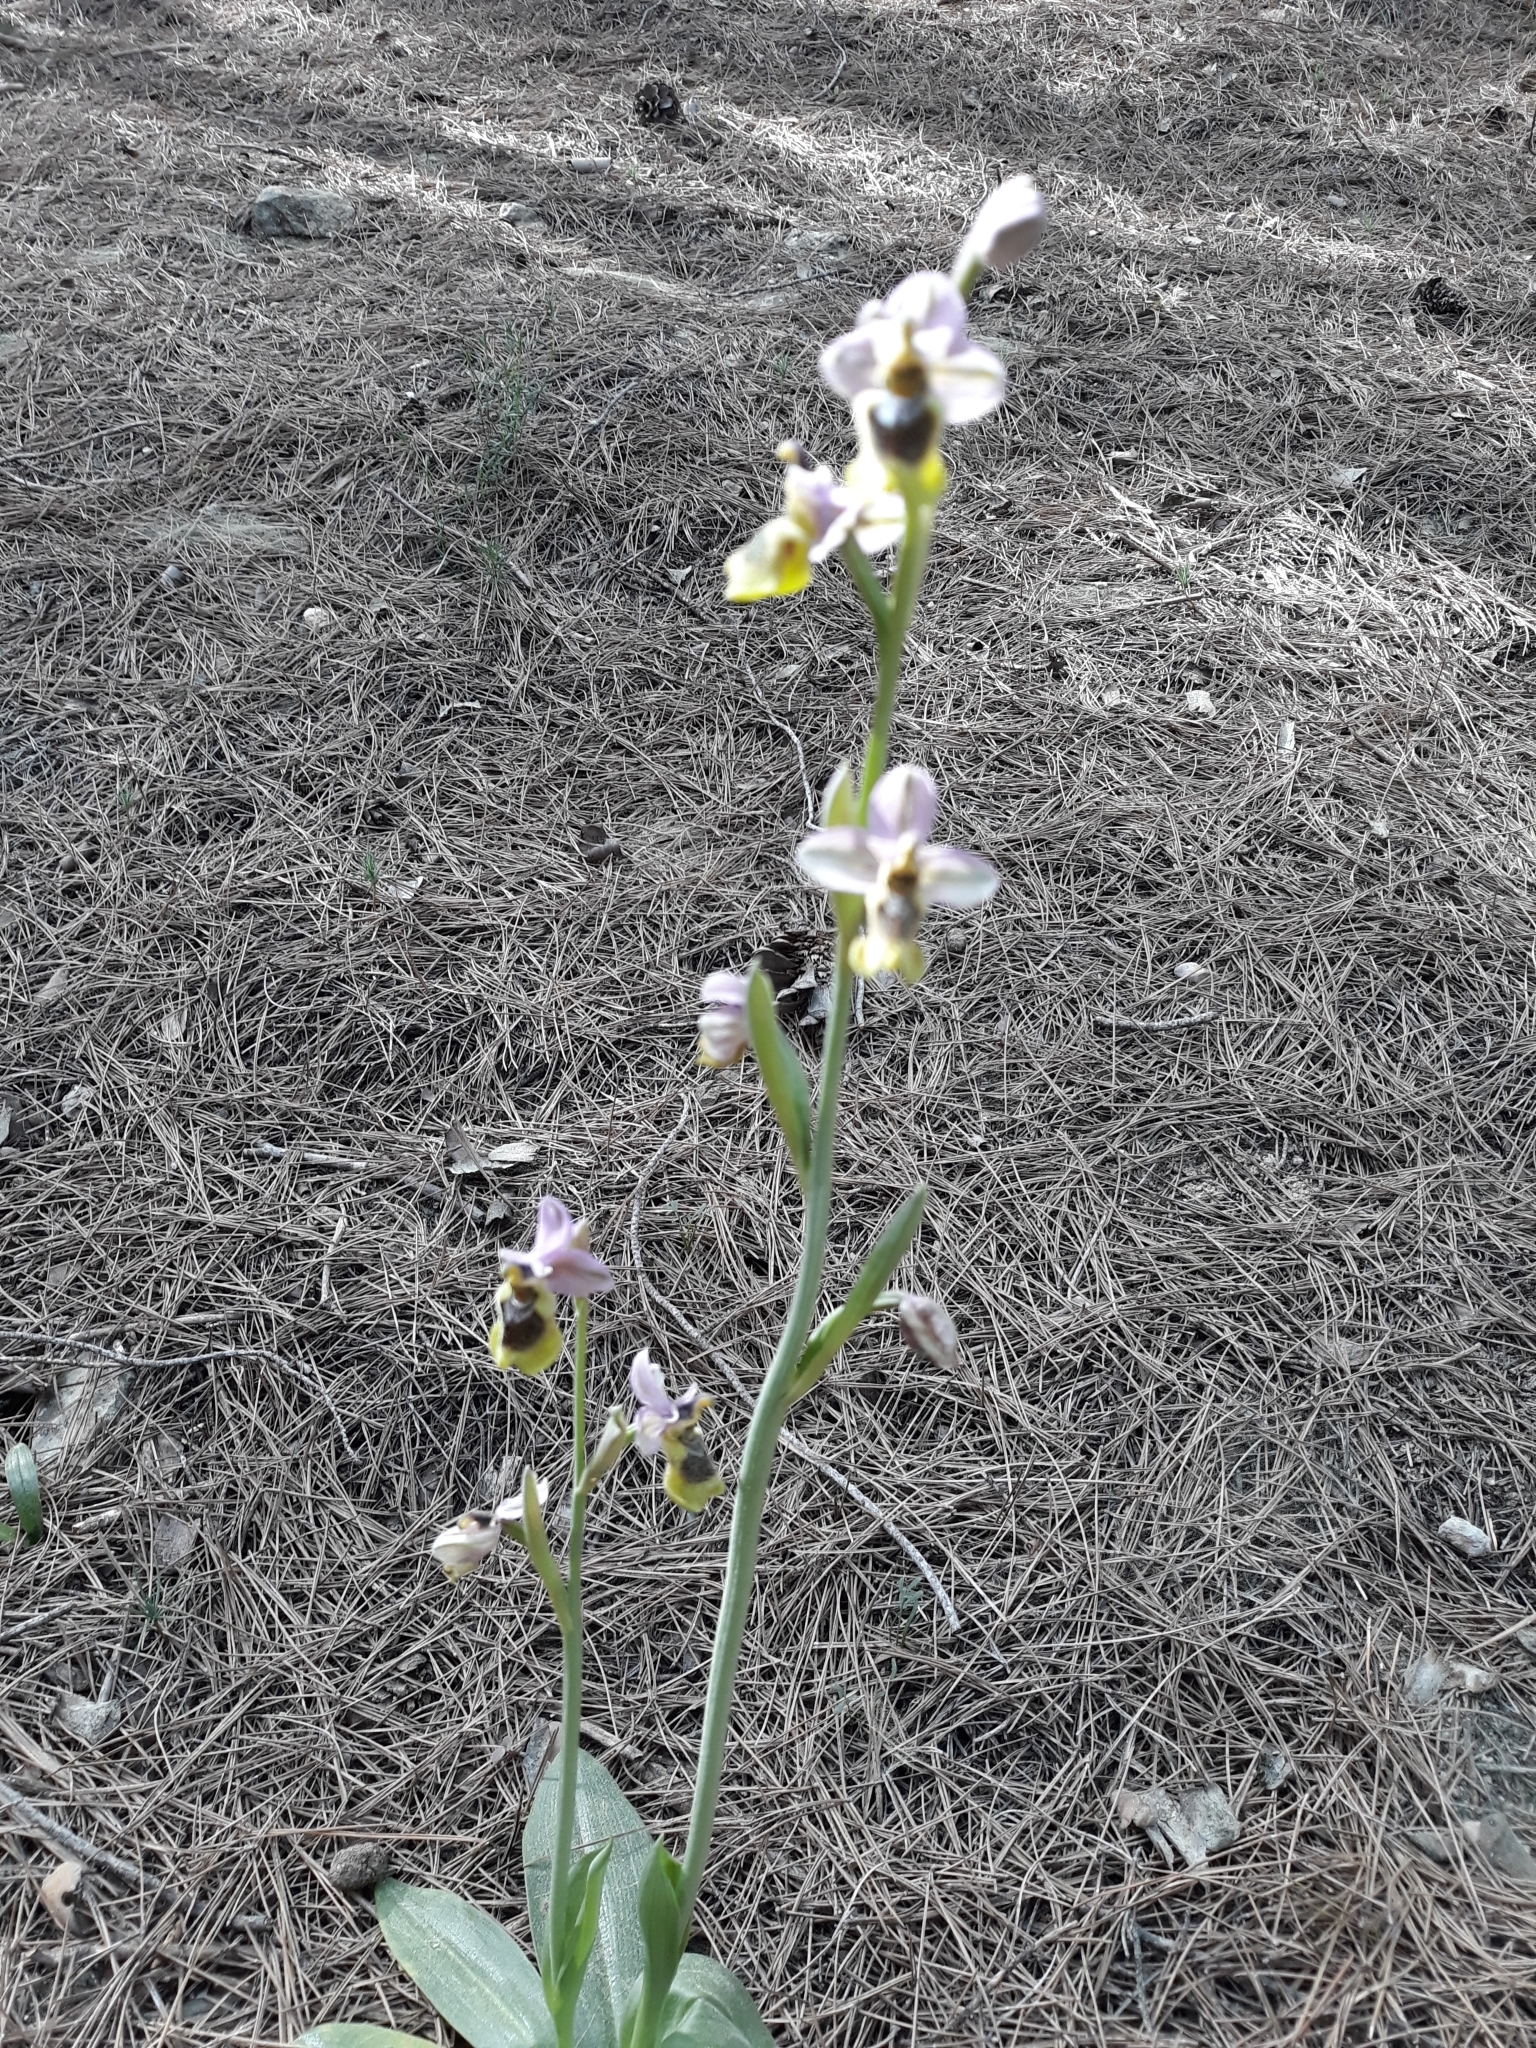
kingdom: Plantae
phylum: Tracheophyta
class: Liliopsida
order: Asparagales
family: Orchidaceae
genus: Ophrys
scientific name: Ophrys tenthredinifera
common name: Sawfly orchid
